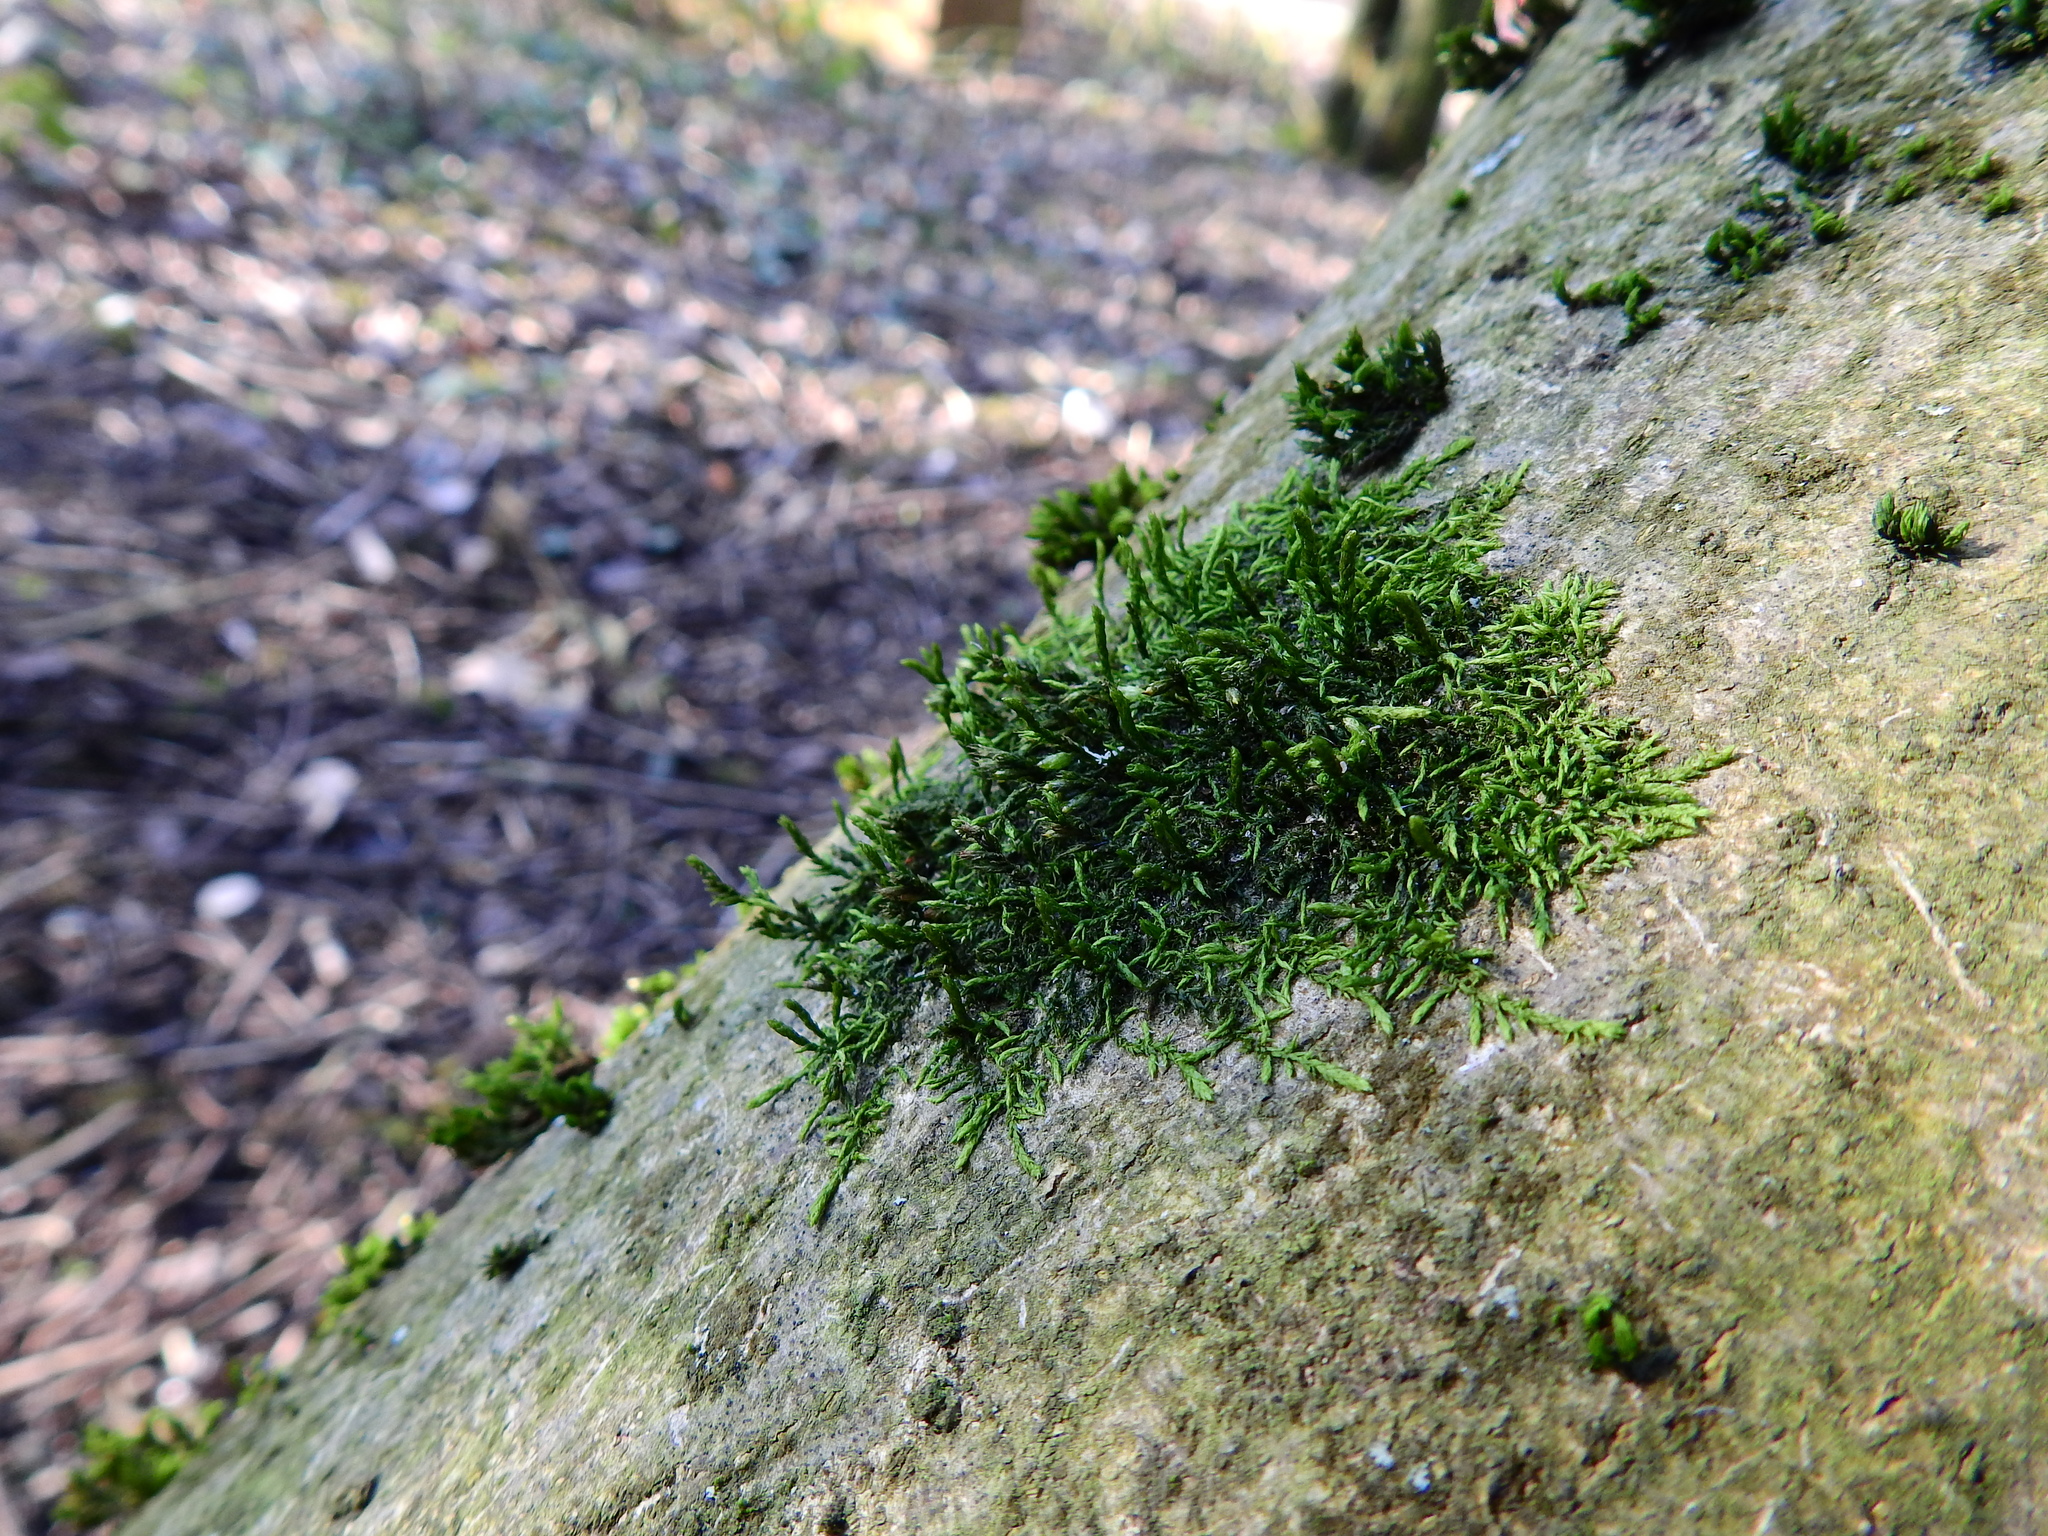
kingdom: Plantae
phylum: Bryophyta
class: Bryopsida
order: Hypnales
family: Cryphaeaceae
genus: Cryphaea
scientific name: Cryphaea heteromalla
